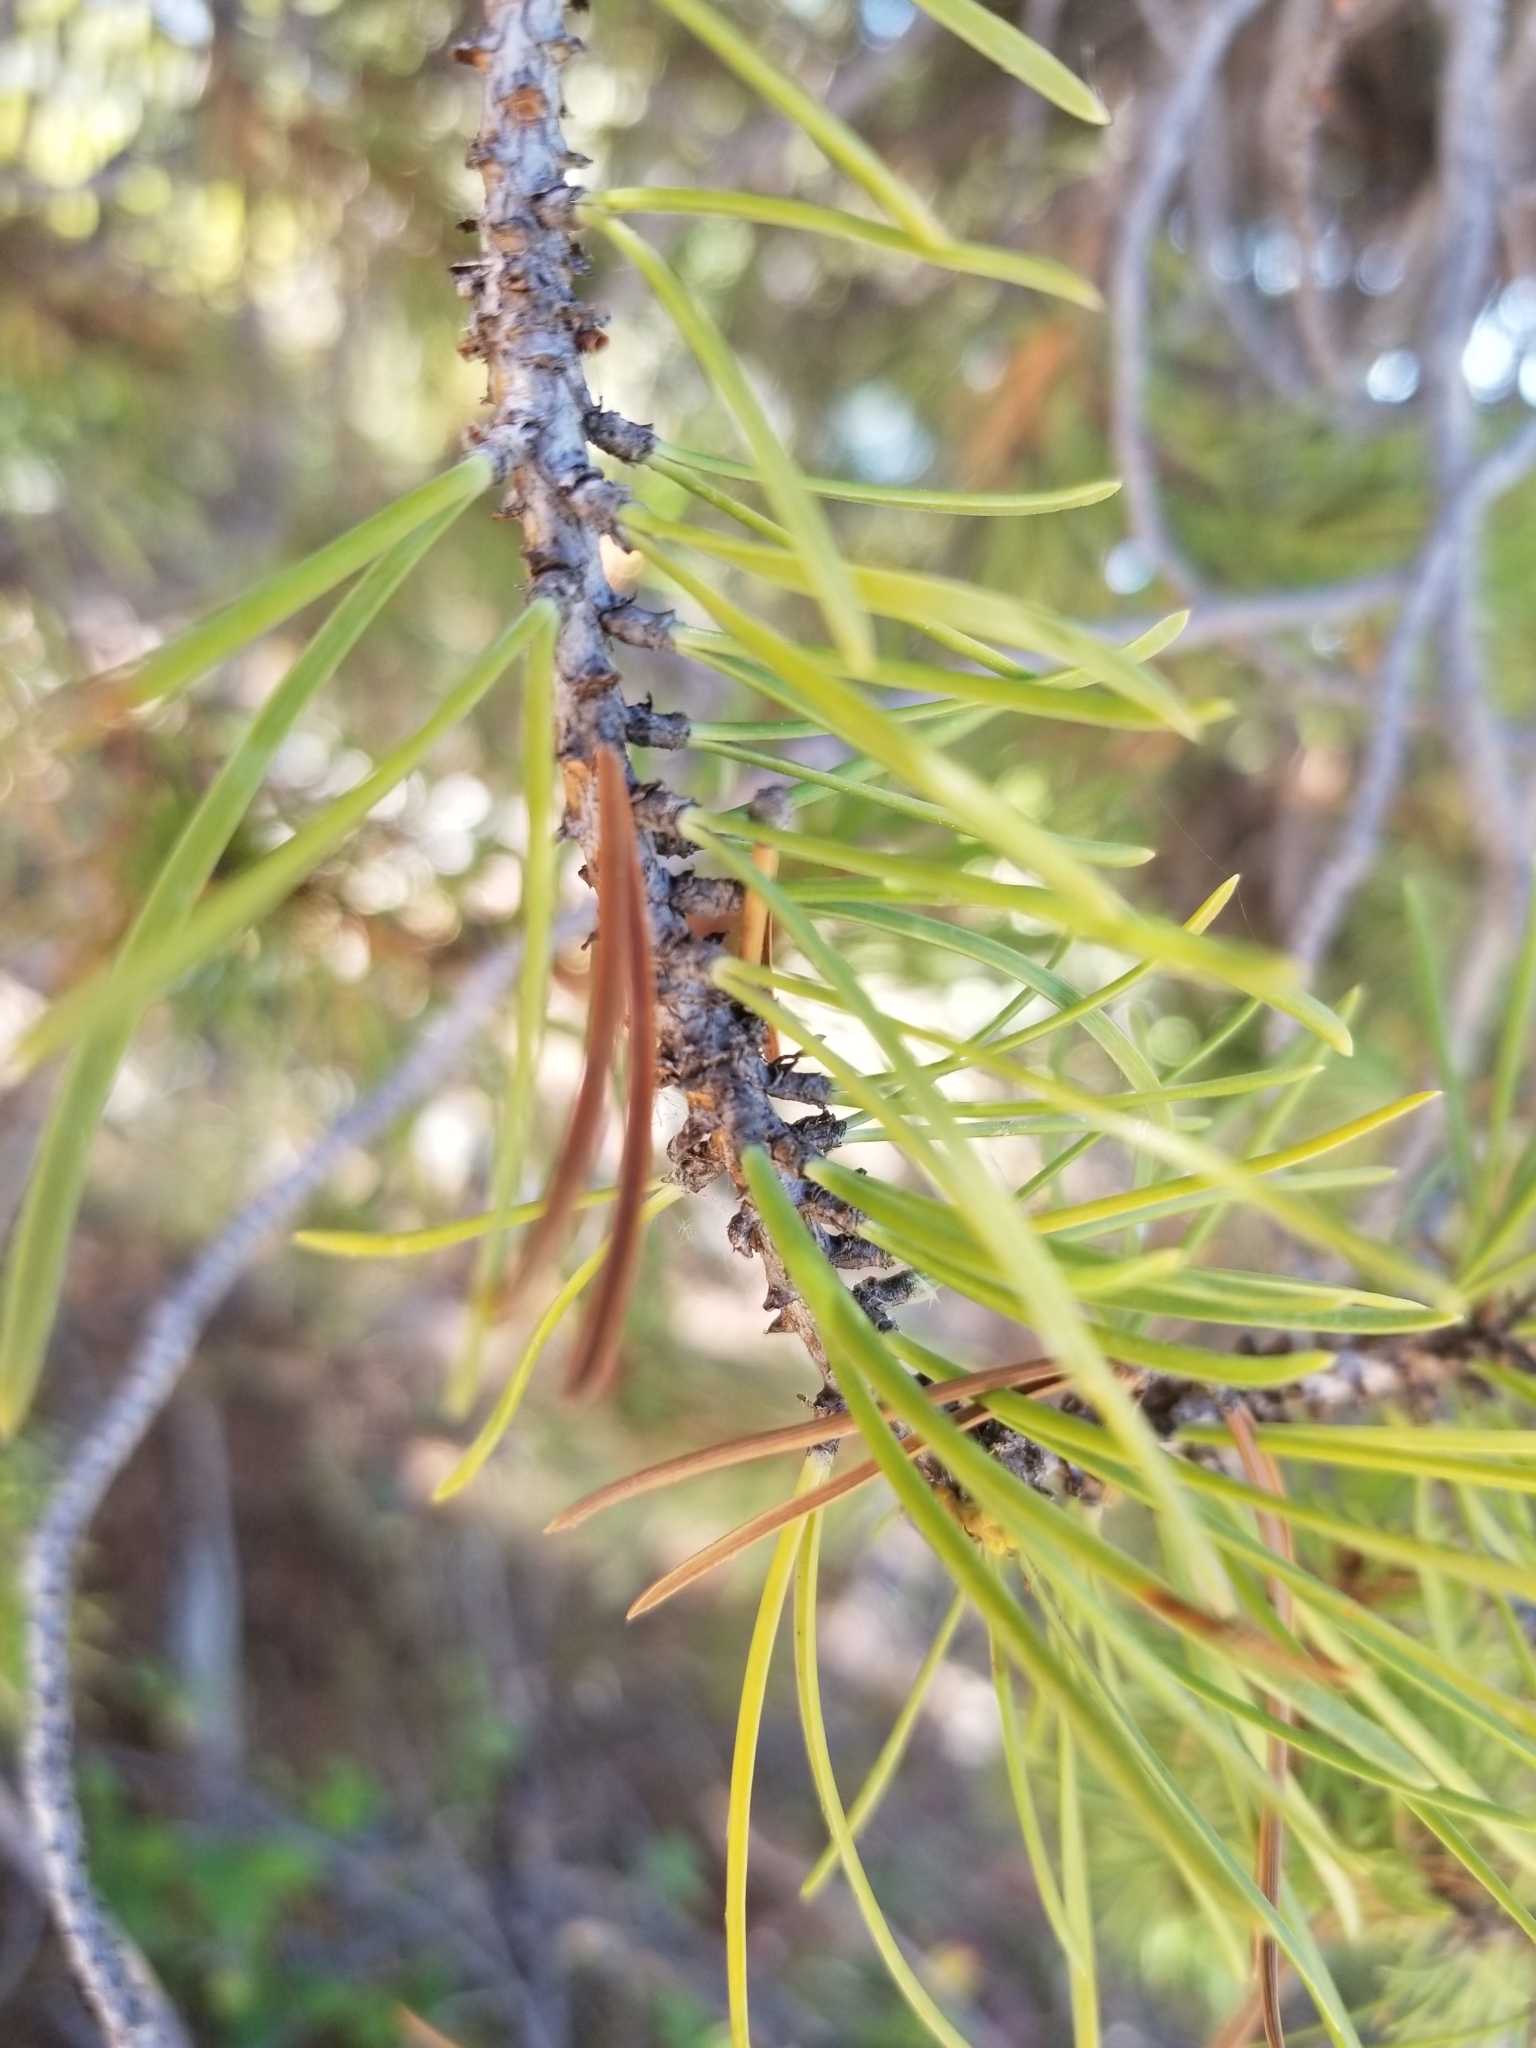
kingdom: Plantae
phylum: Tracheophyta
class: Pinopsida
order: Pinales
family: Pinaceae
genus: Pinus
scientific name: Pinus contorta
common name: Lodgepole pine
